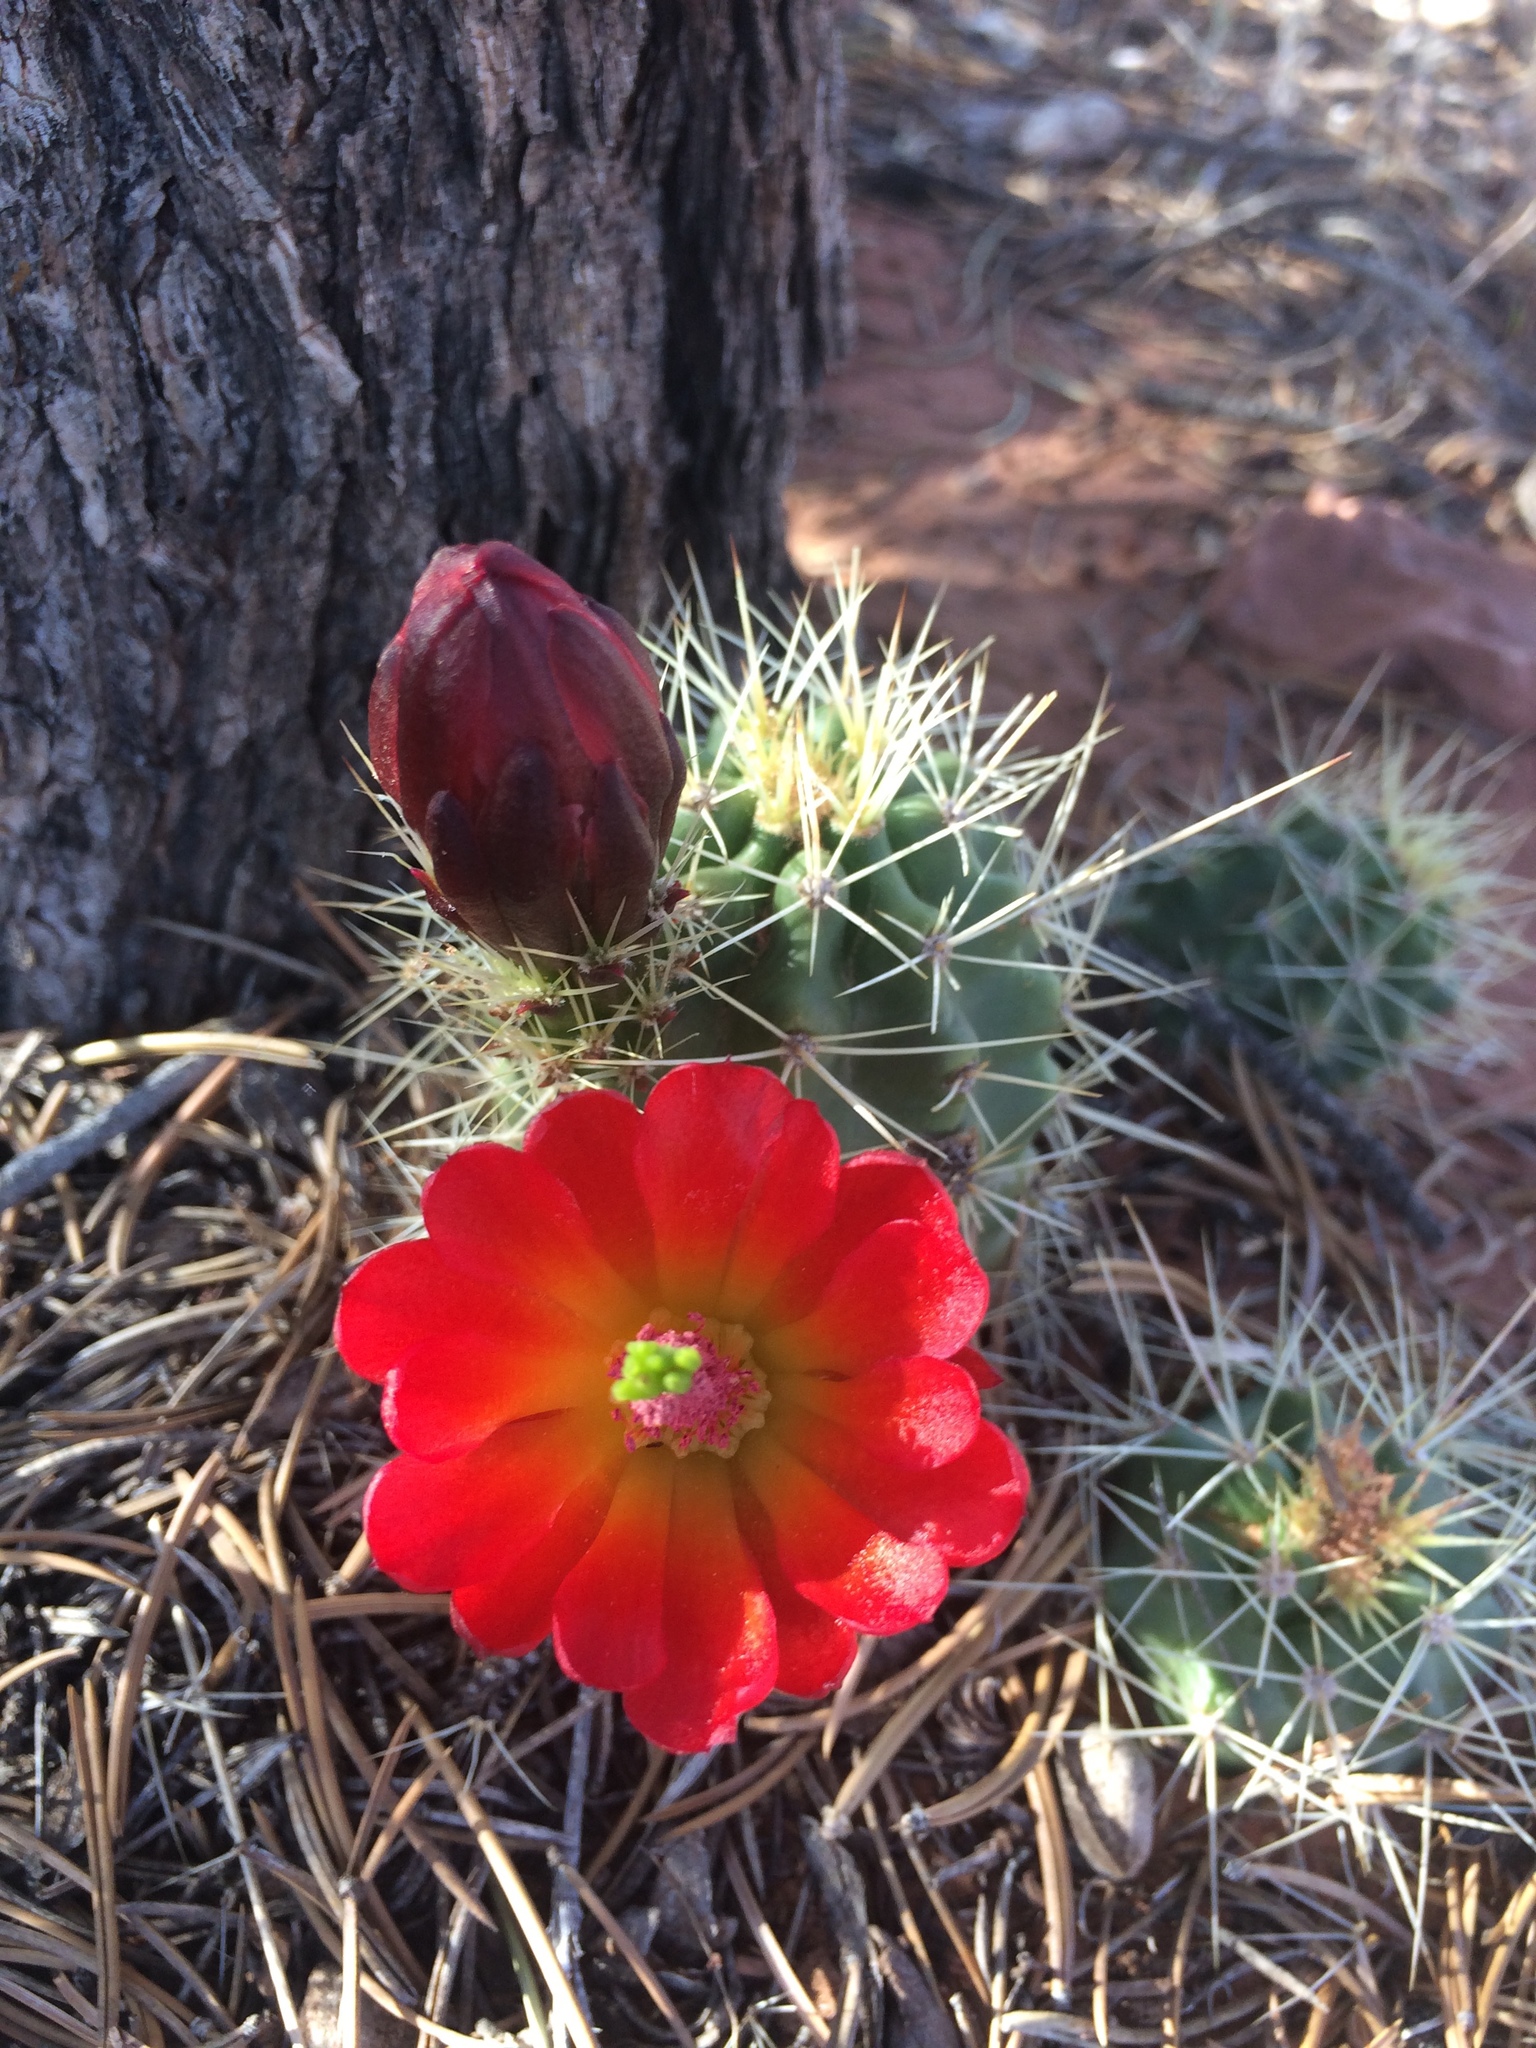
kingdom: Plantae
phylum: Tracheophyta
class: Magnoliopsida
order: Caryophyllales
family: Cactaceae
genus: Echinocereus
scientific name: Echinocereus triglochidiatus
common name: Claretcup hedgehog
